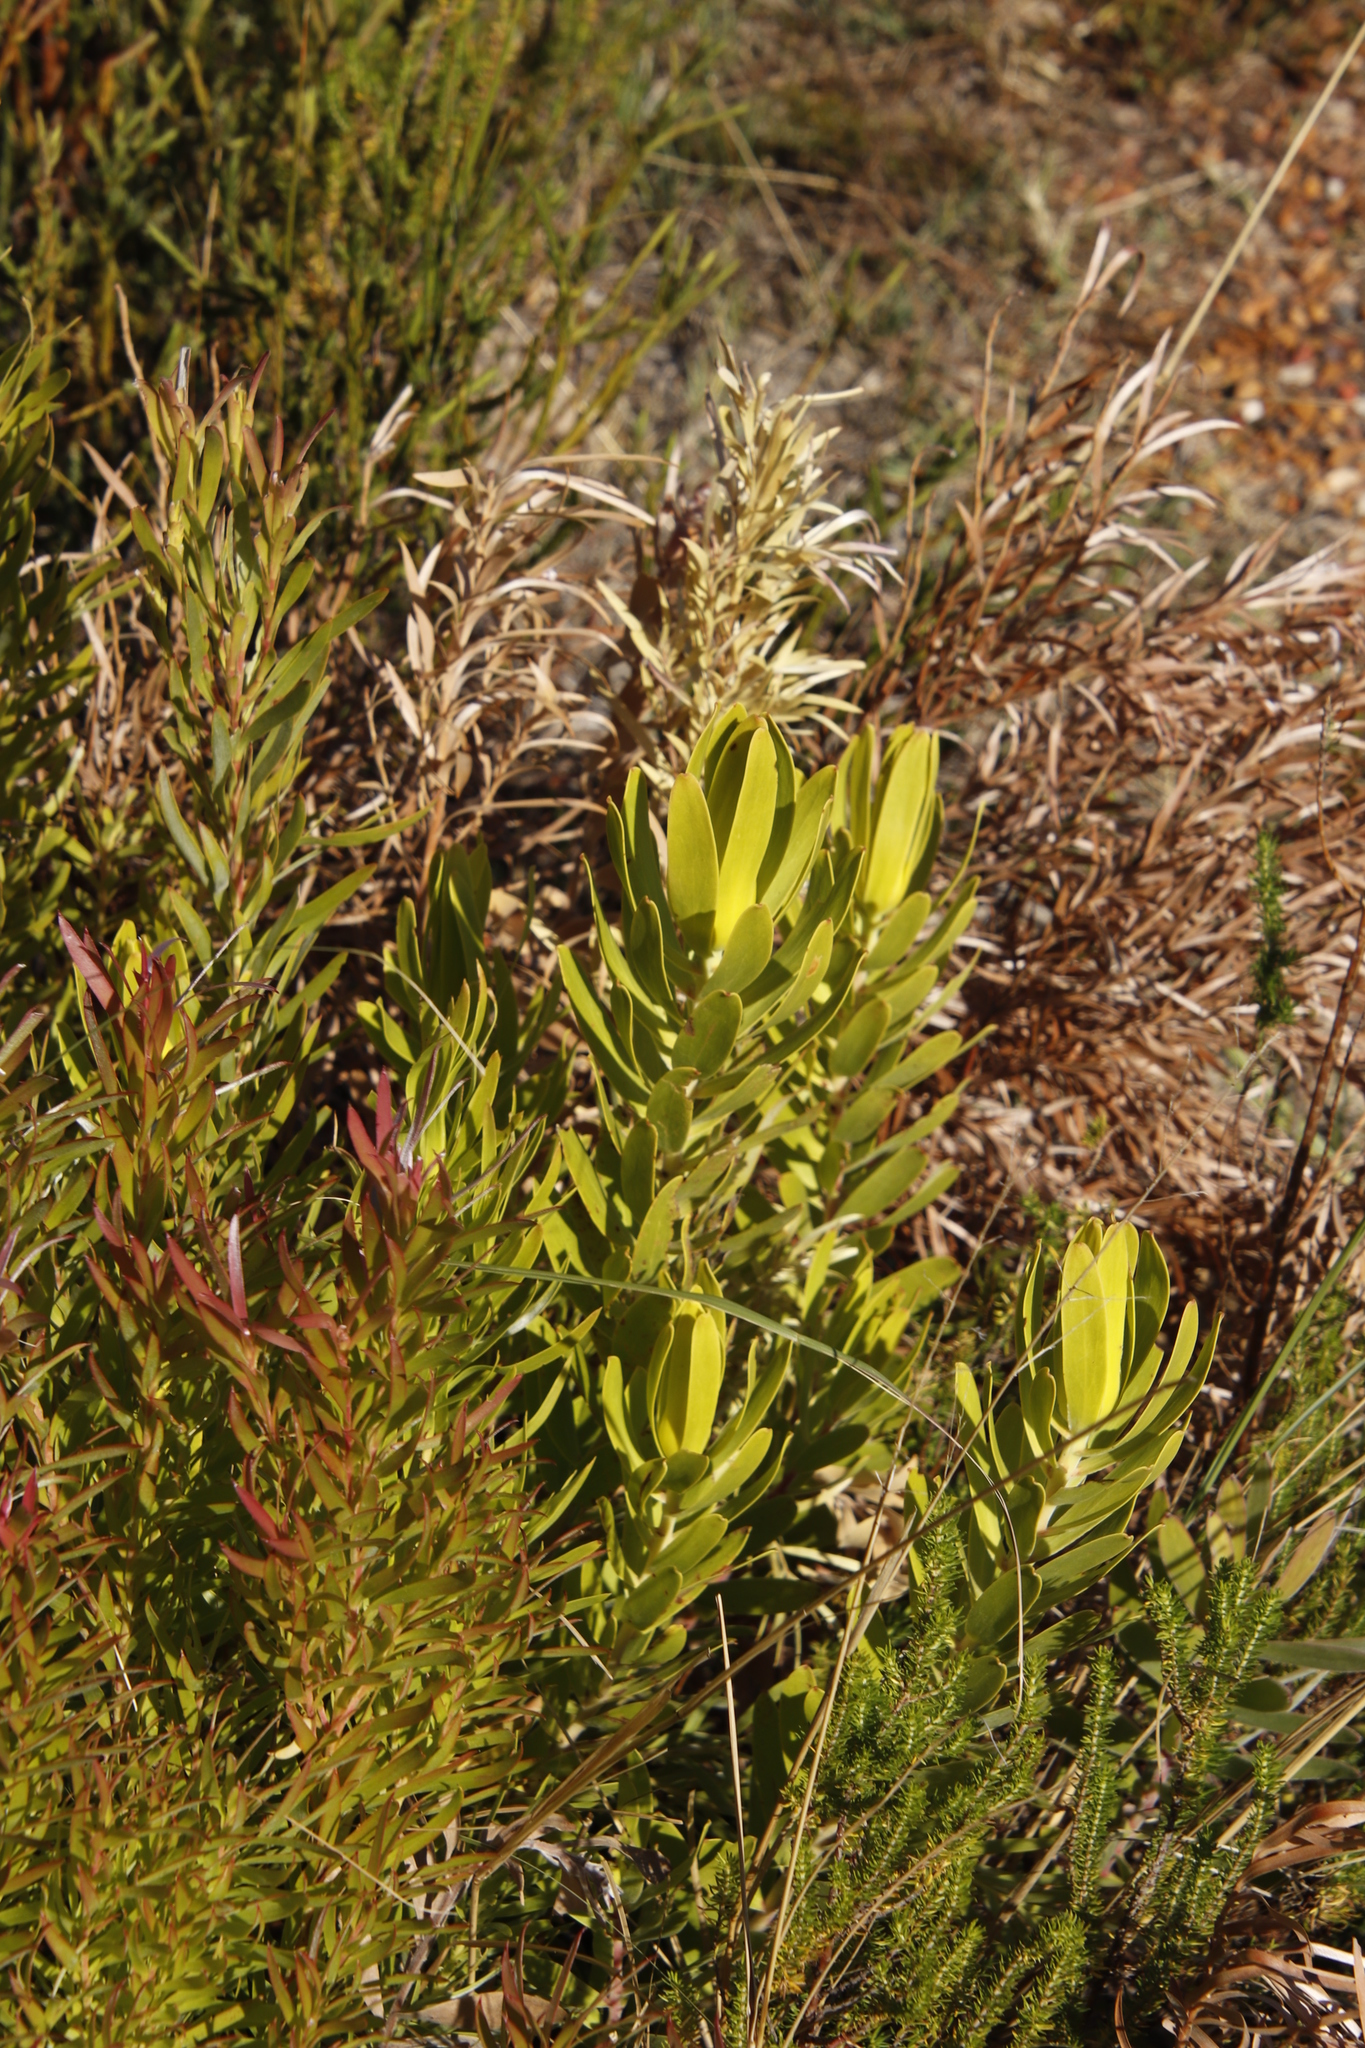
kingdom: Plantae
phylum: Tracheophyta
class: Magnoliopsida
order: Proteales
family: Proteaceae
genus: Leucadendron
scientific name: Leucadendron laureolum
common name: Golden sunshinebush
